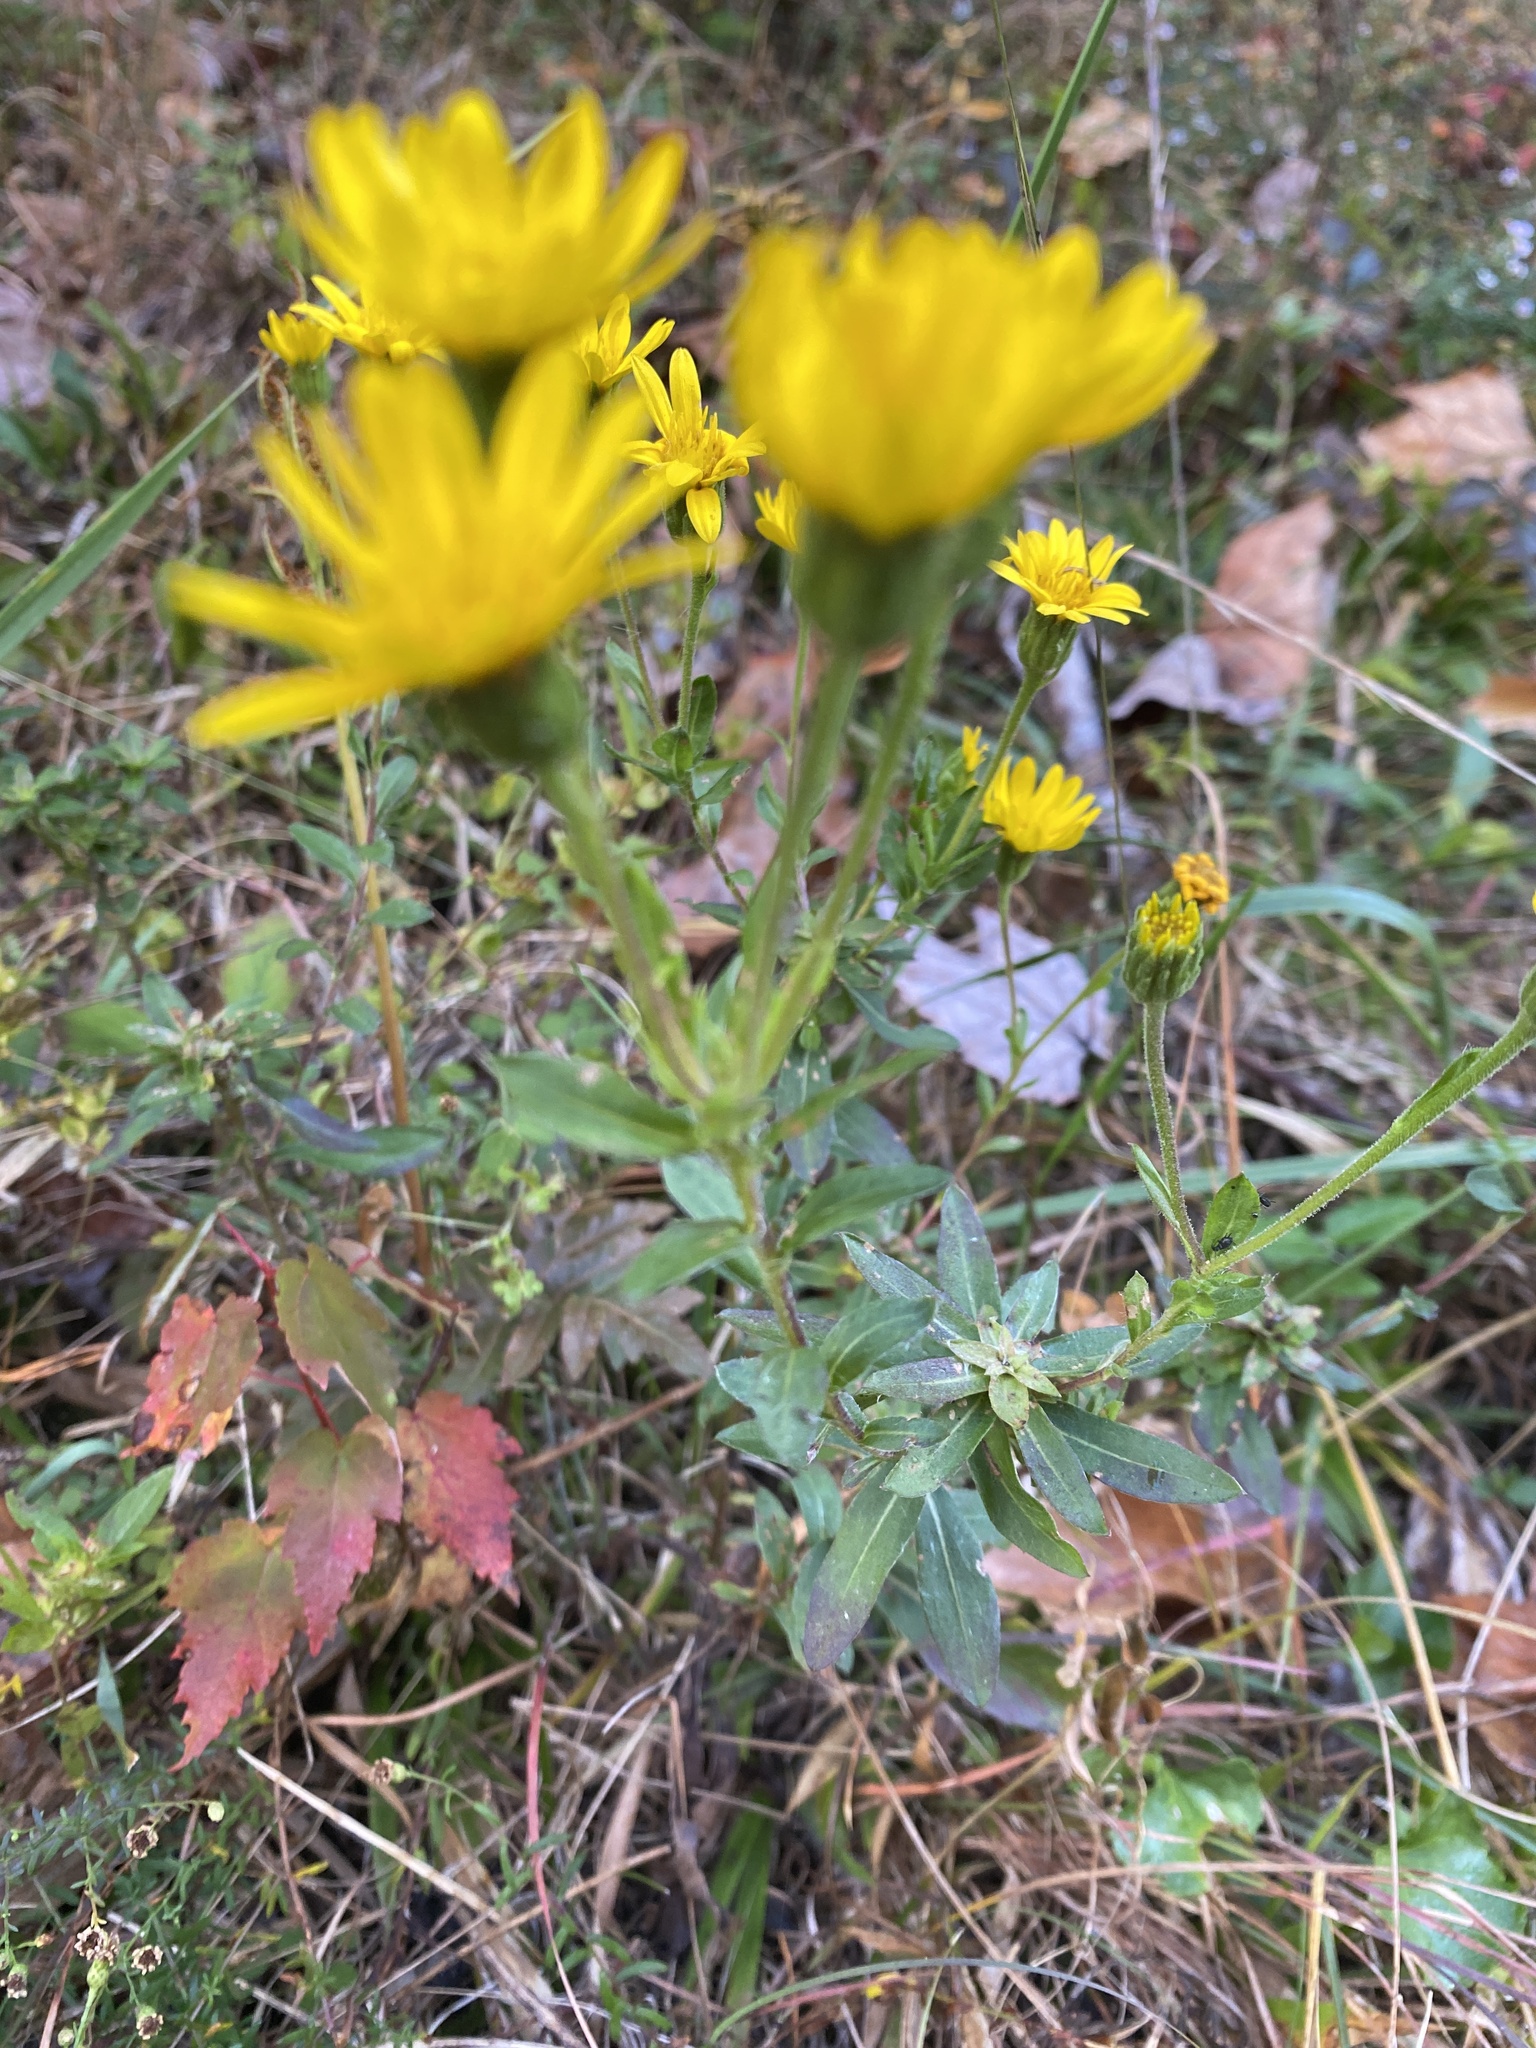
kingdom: Plantae
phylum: Tracheophyta
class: Magnoliopsida
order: Asterales
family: Asteraceae
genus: Chrysopsis
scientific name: Chrysopsis mariana
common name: Maryland golden-aster
